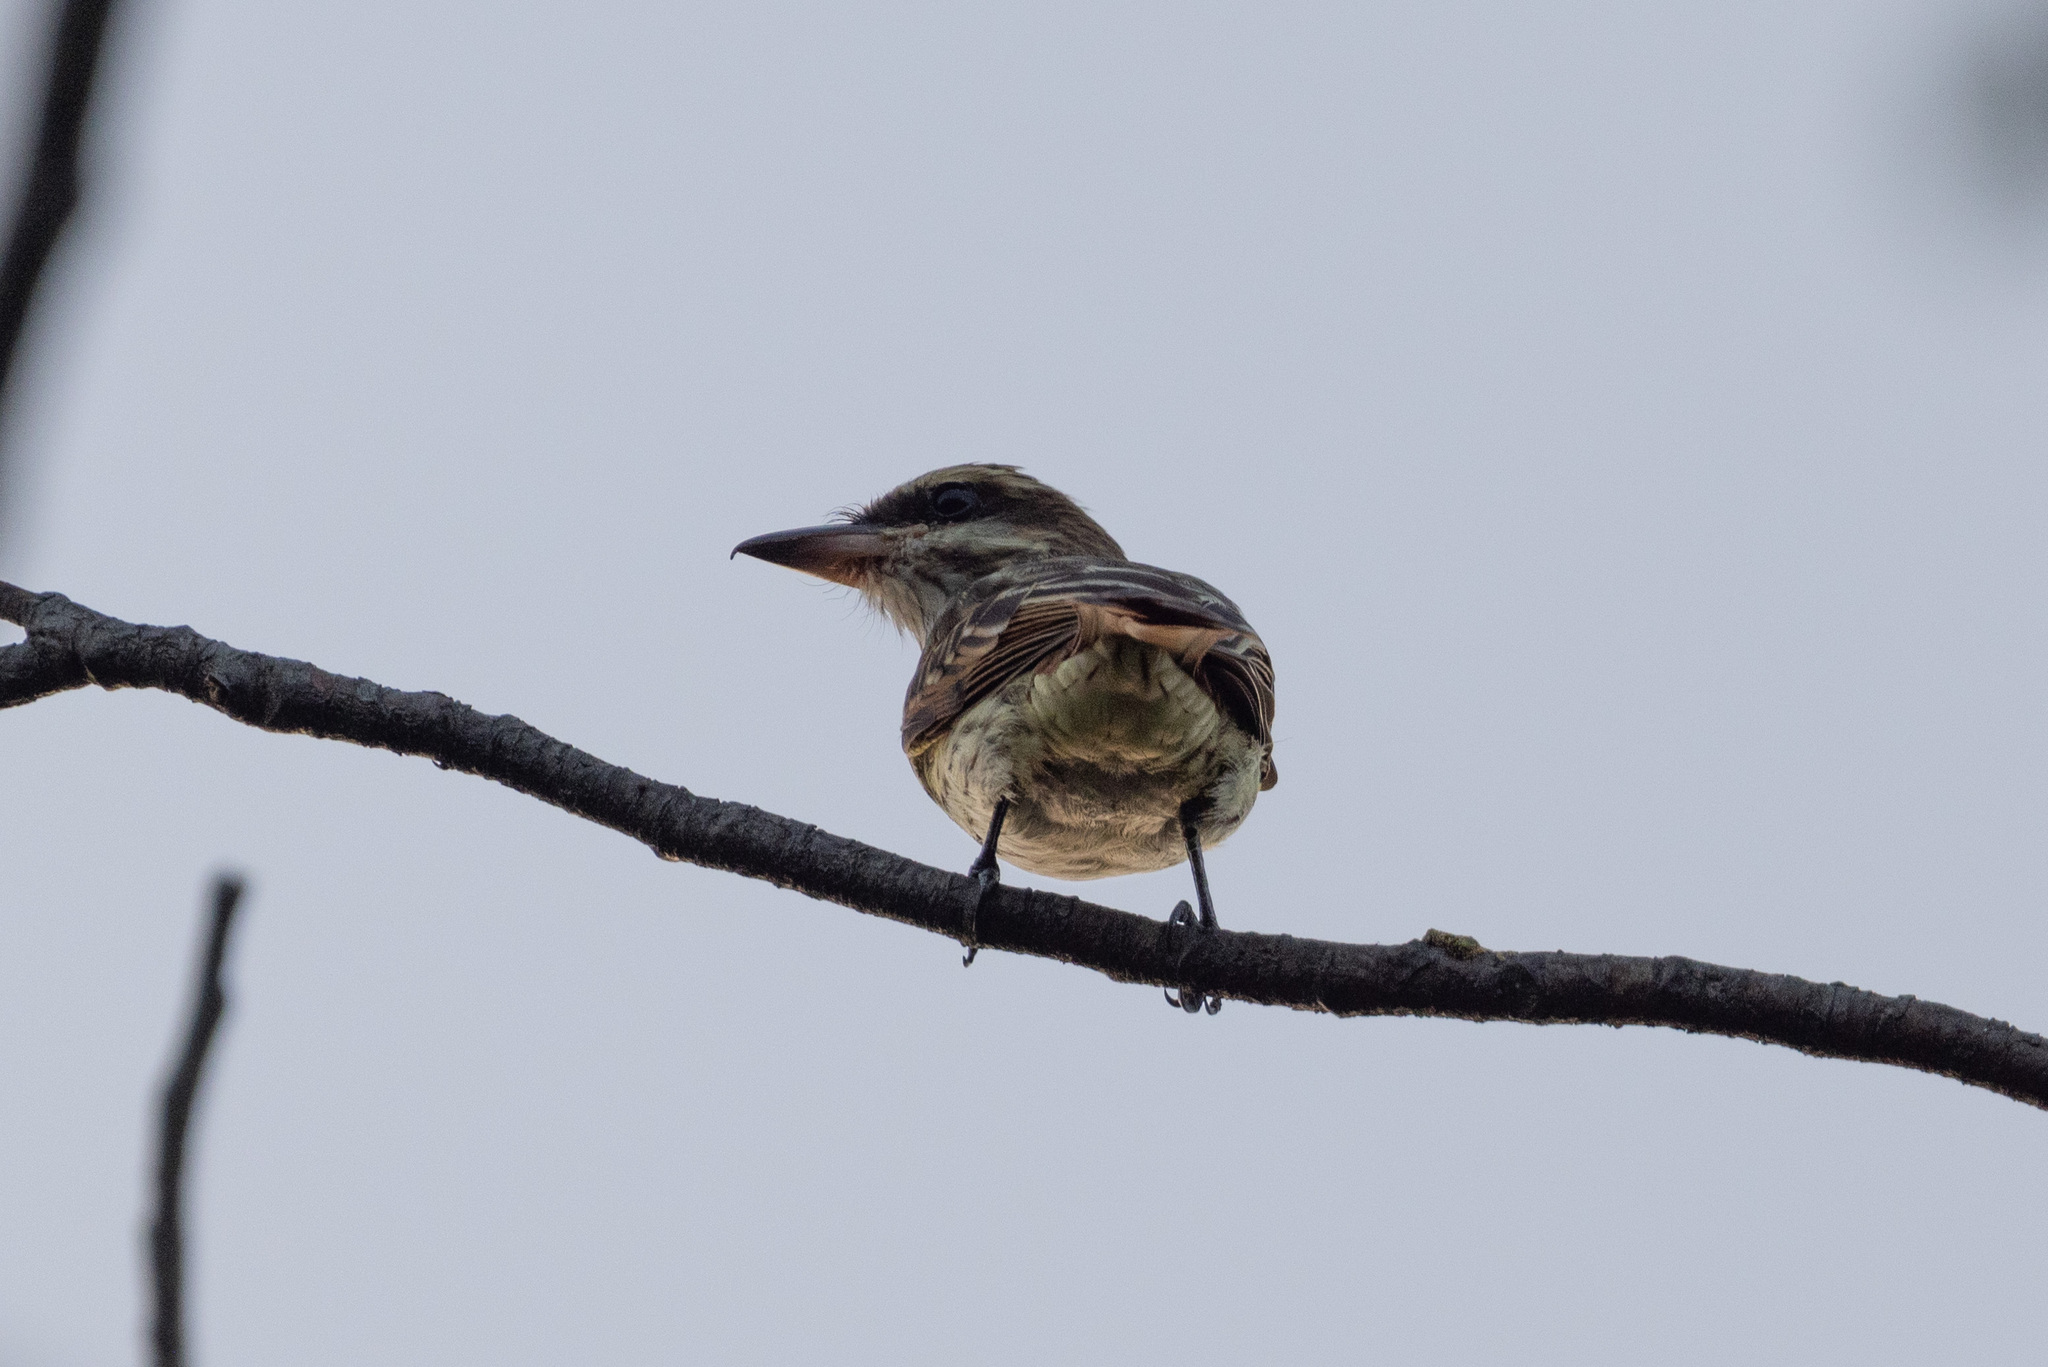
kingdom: Animalia
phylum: Chordata
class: Aves
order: Passeriformes
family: Tyrannidae
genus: Myiodynastes
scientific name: Myiodynastes maculatus
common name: Streaked flycatcher
